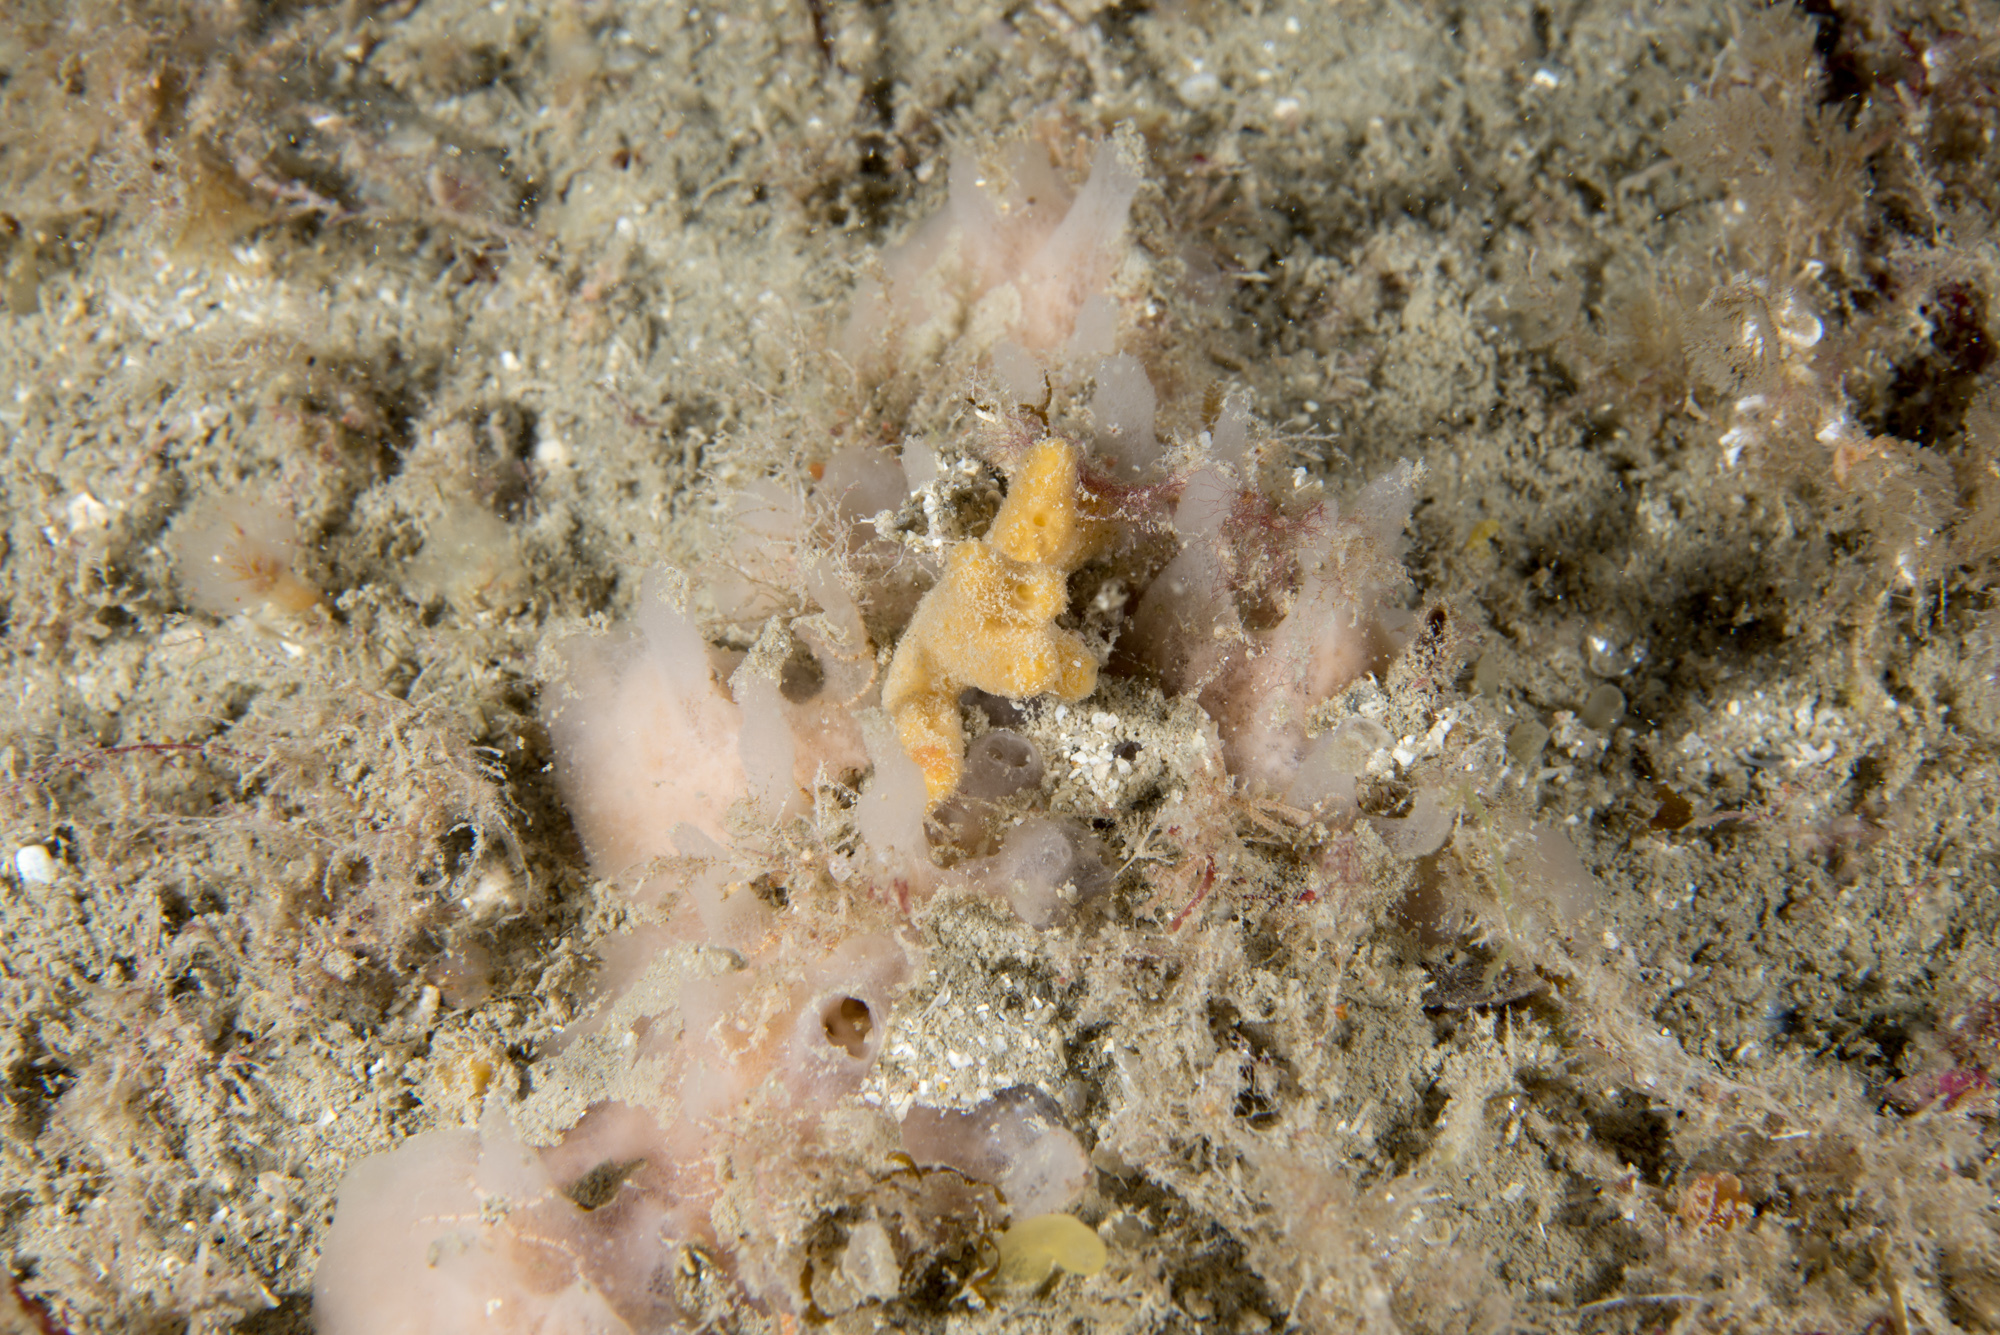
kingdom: Animalia
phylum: Porifera
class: Demospongiae
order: Haplosclerida
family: Chalinidae
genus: Haliclona
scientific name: Haliclona angulata
